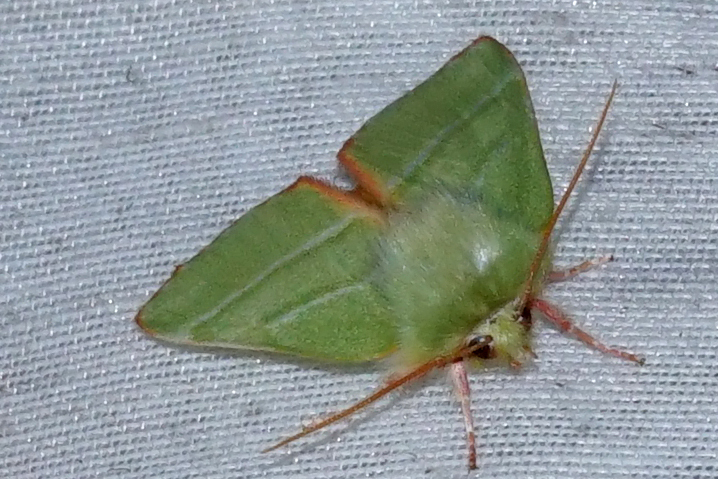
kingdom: Animalia
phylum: Arthropoda
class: Insecta
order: Lepidoptera
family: Nolidae
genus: Pseudoips
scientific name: Pseudoips prasinana
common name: Green silver-lines
